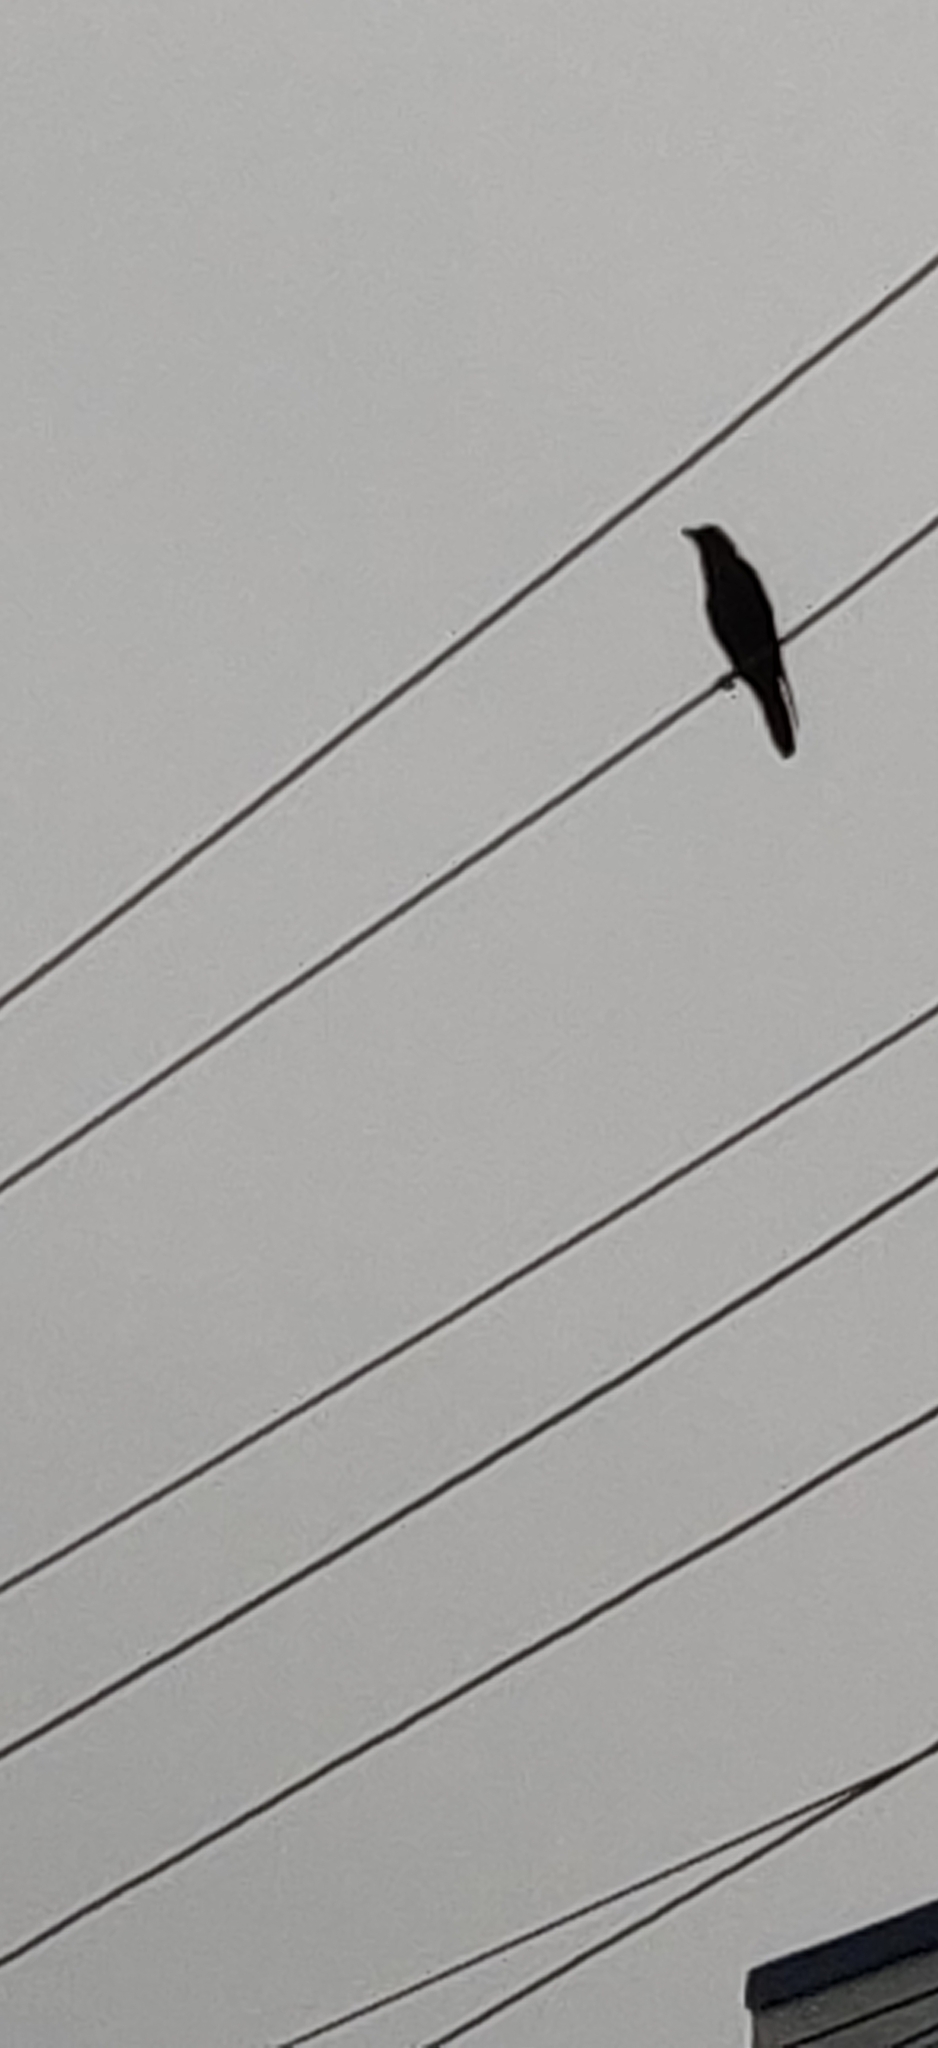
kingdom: Animalia
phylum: Chordata
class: Aves
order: Passeriformes
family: Corvidae
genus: Corvus
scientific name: Corvus splendens
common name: House crow
